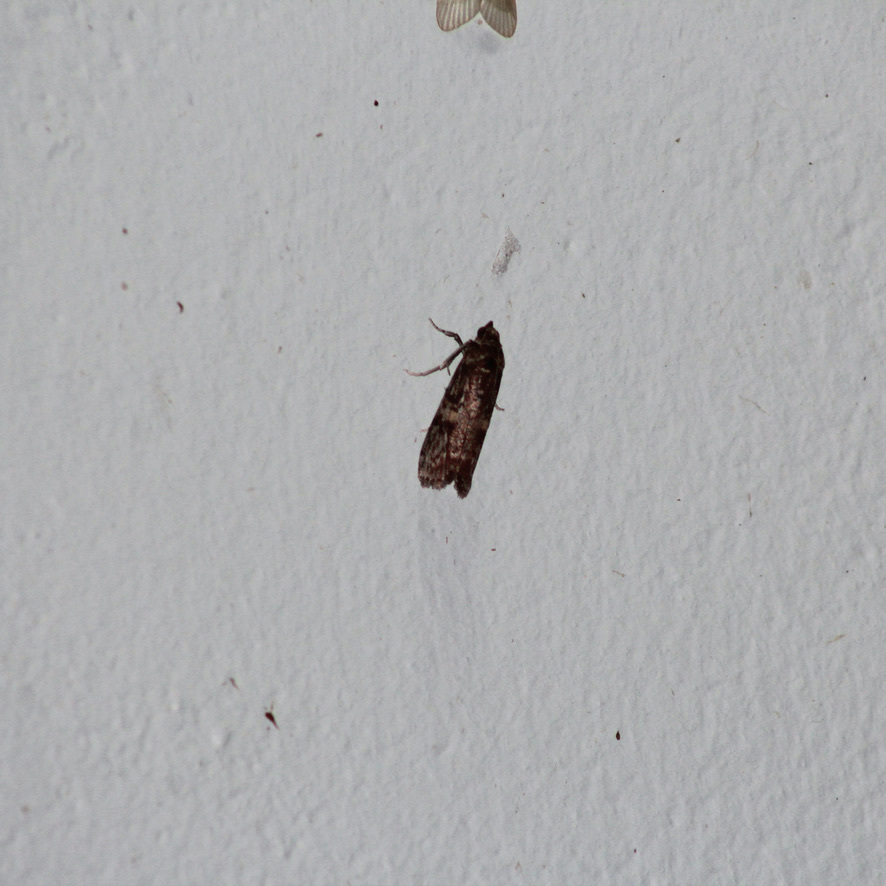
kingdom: Animalia
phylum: Arthropoda
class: Insecta
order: Lepidoptera
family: Pyralidae
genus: Hypsipyla
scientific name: Hypsipyla grandella
